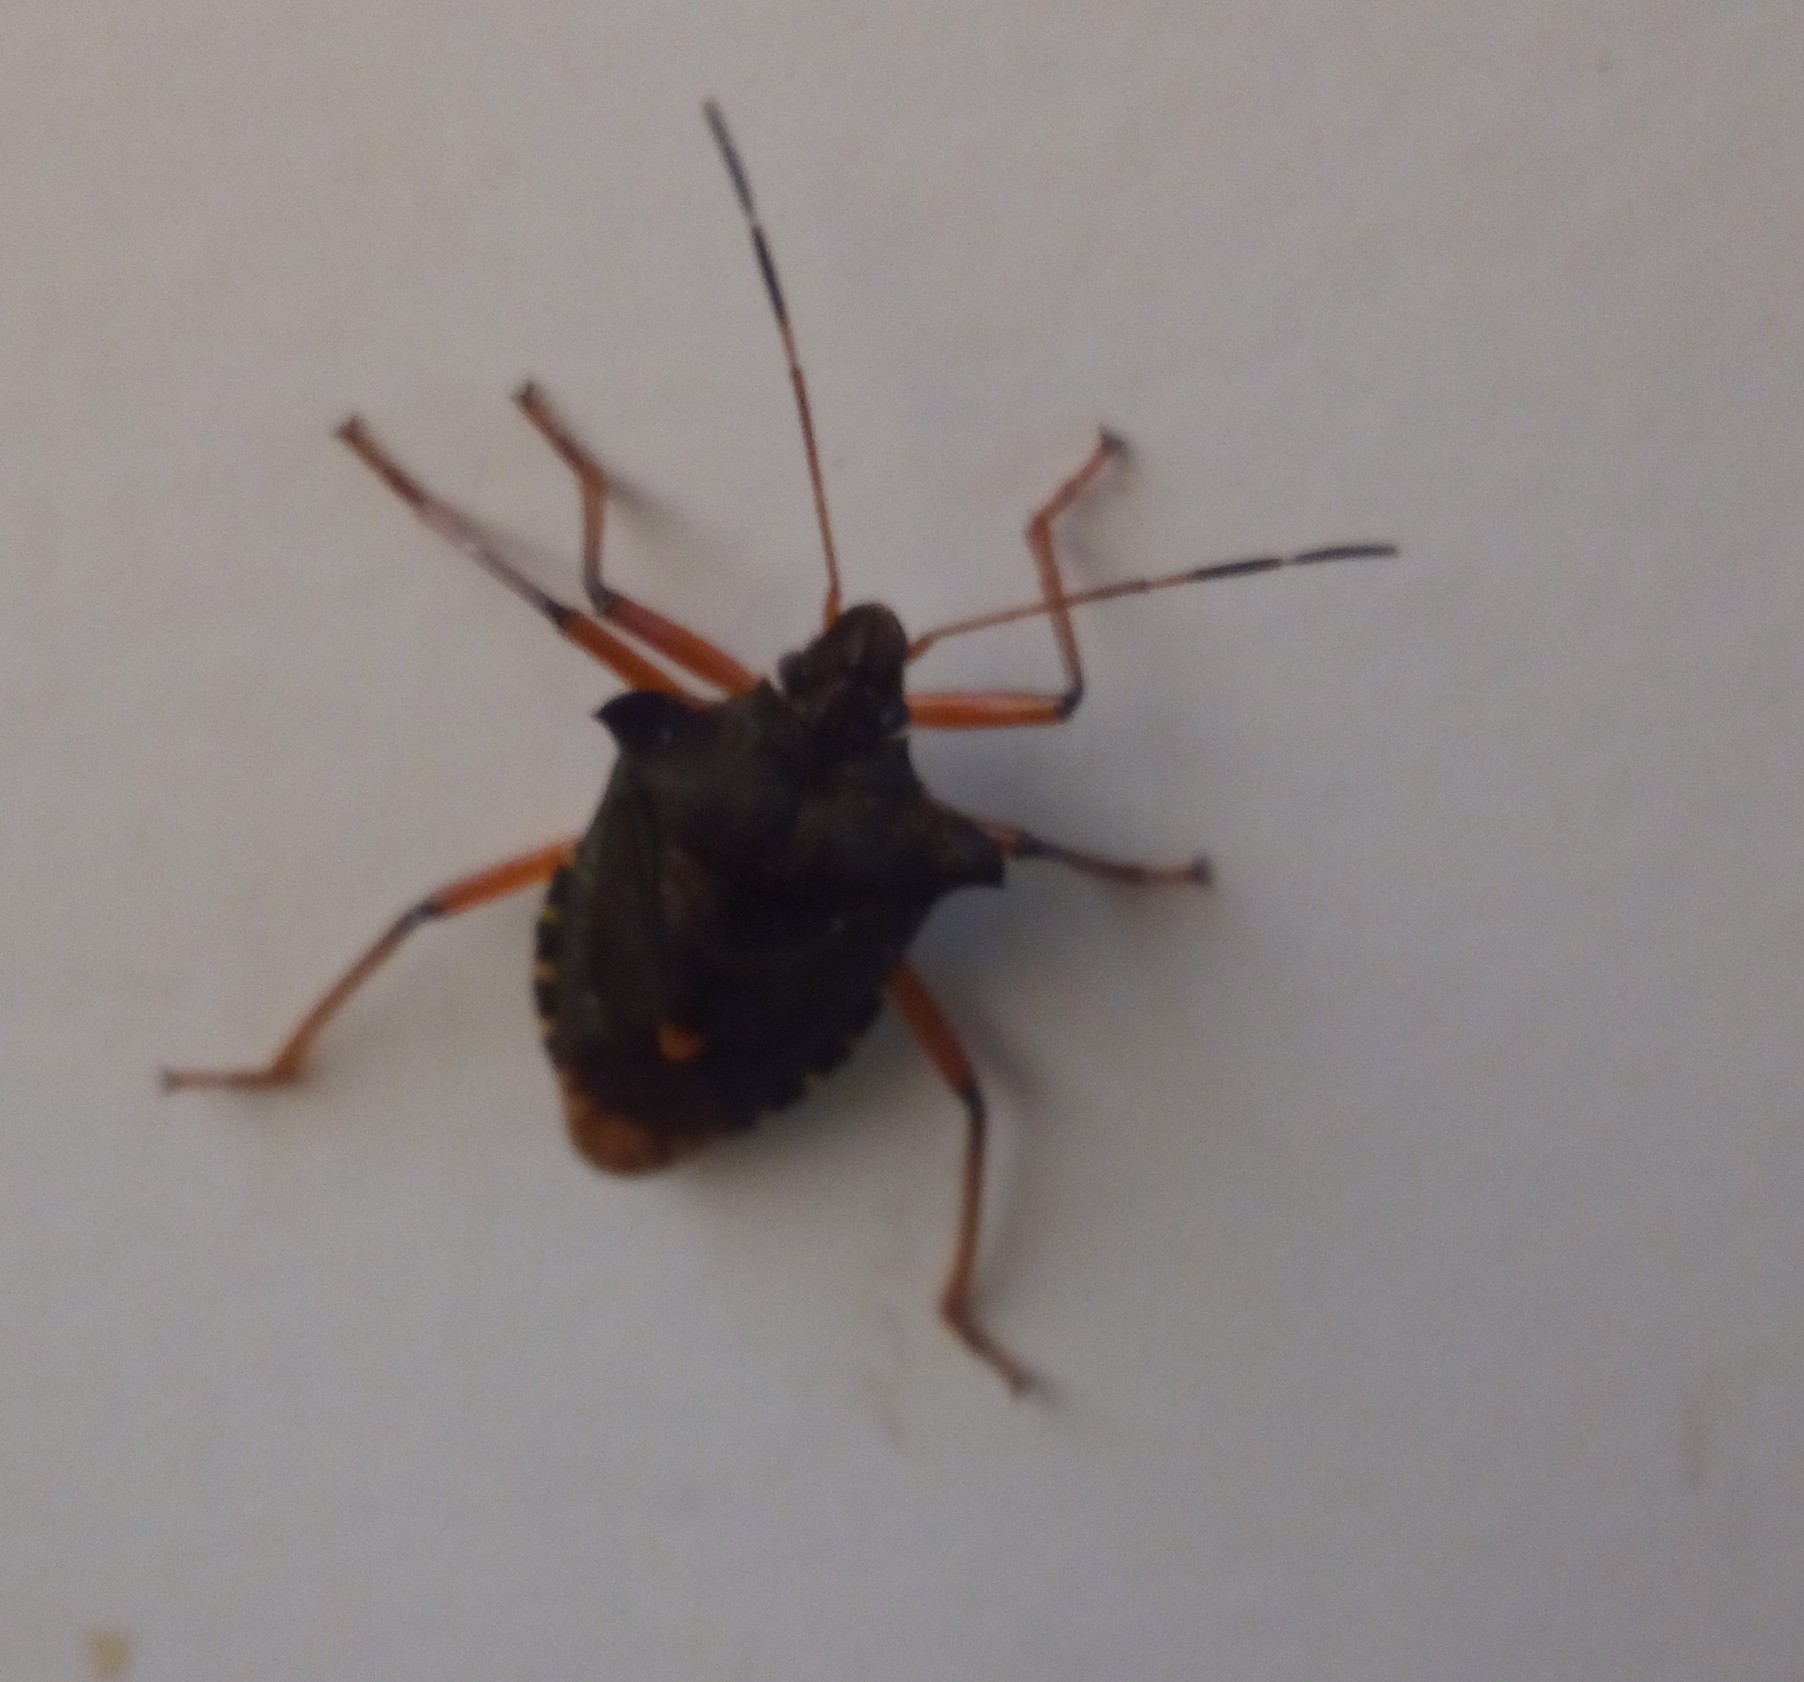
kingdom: Animalia
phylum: Arthropoda
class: Insecta
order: Hemiptera
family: Pentatomidae
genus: Pentatoma
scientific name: Pentatoma rufipes
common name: Forest bug
